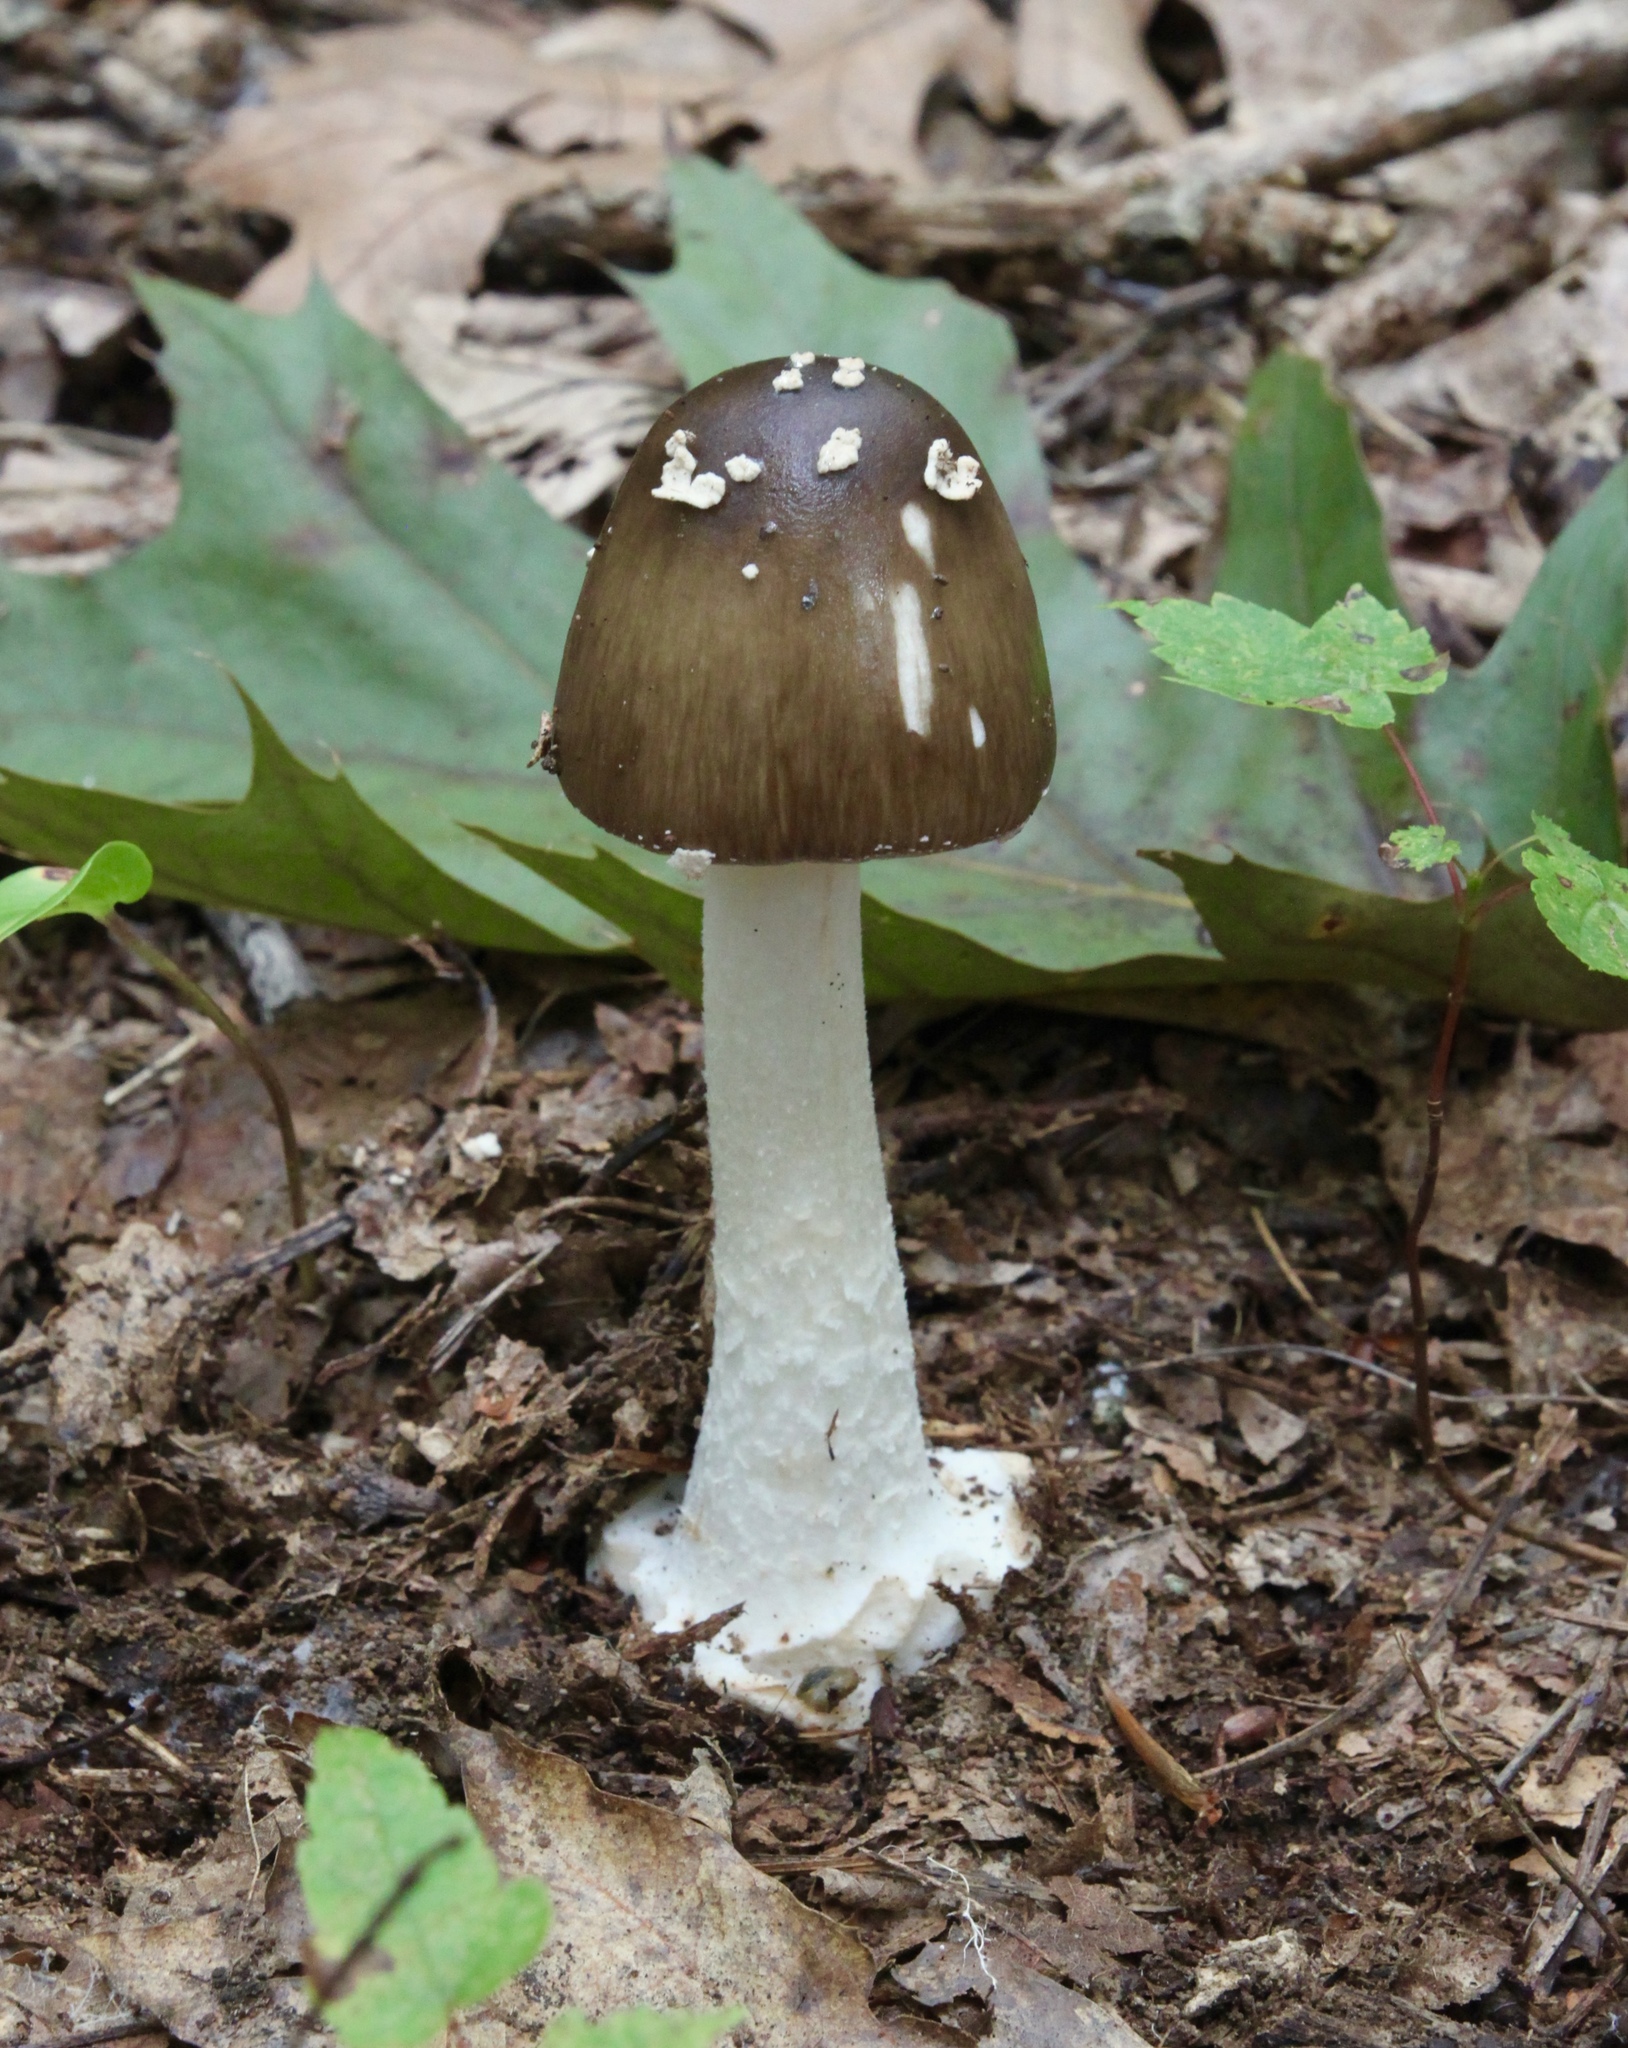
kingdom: Fungi
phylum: Basidiomycota
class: Agaricomycetes
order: Agaricales
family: Amanitaceae
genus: Amanita
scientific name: Amanita brunnescens
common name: Brown american star-footed amanita
